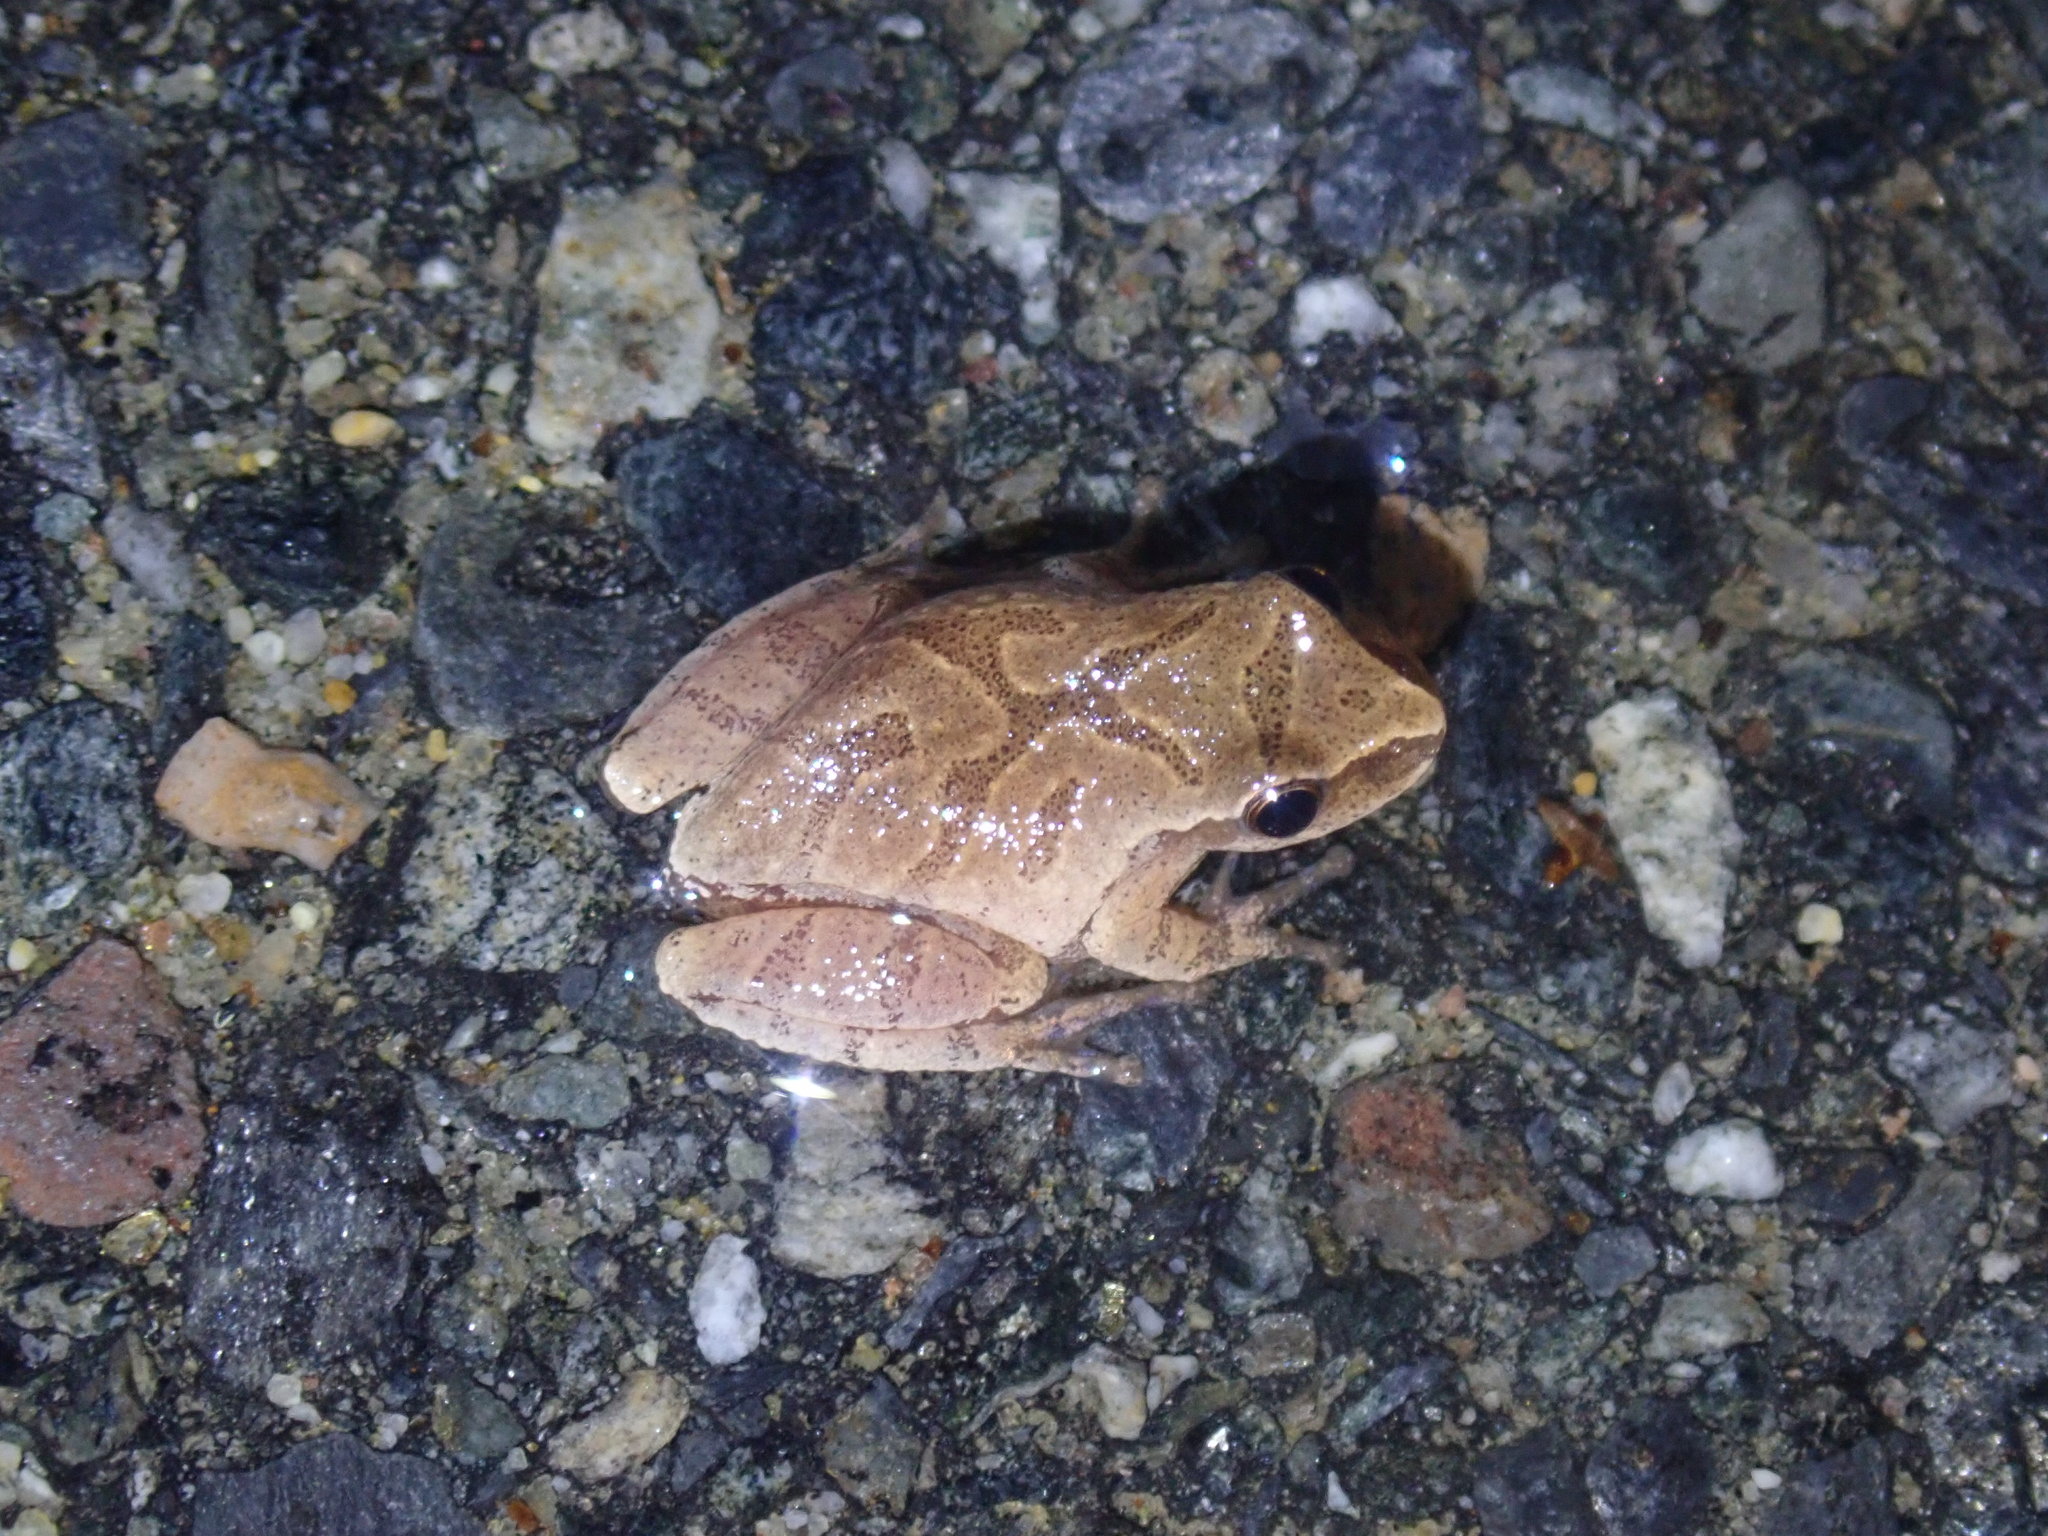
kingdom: Animalia
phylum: Chordata
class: Amphibia
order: Anura
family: Hylidae
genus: Pseudacris
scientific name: Pseudacris crucifer
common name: Spring peeper
